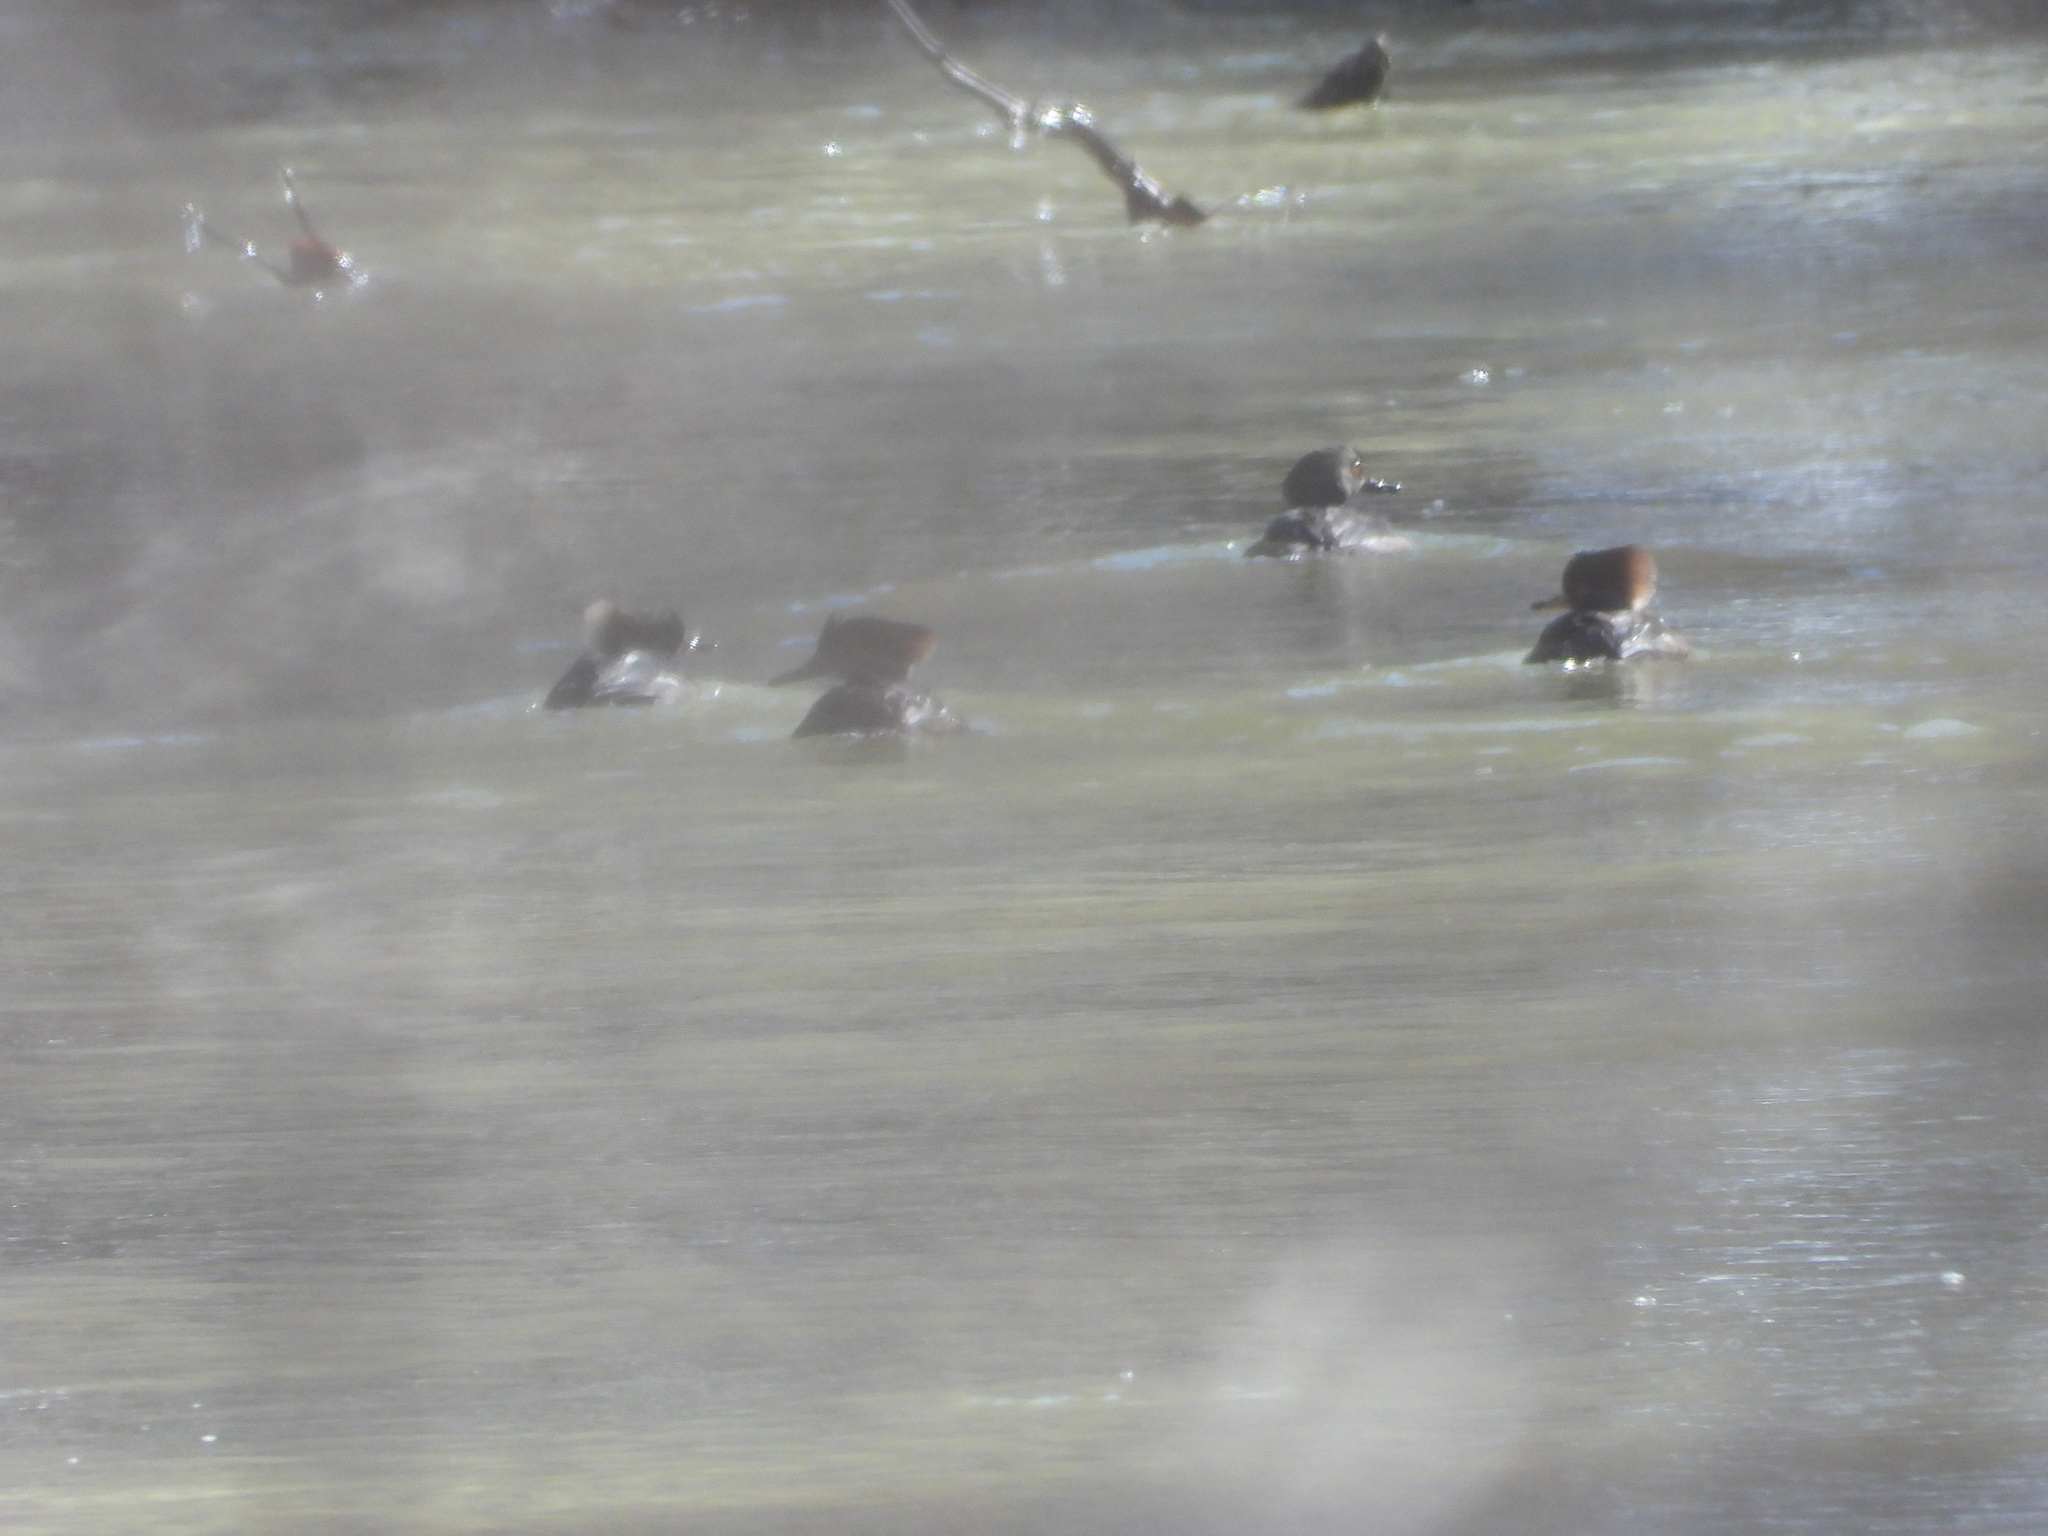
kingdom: Animalia
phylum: Chordata
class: Aves
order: Anseriformes
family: Anatidae
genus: Lophodytes
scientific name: Lophodytes cucullatus
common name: Hooded merganser
